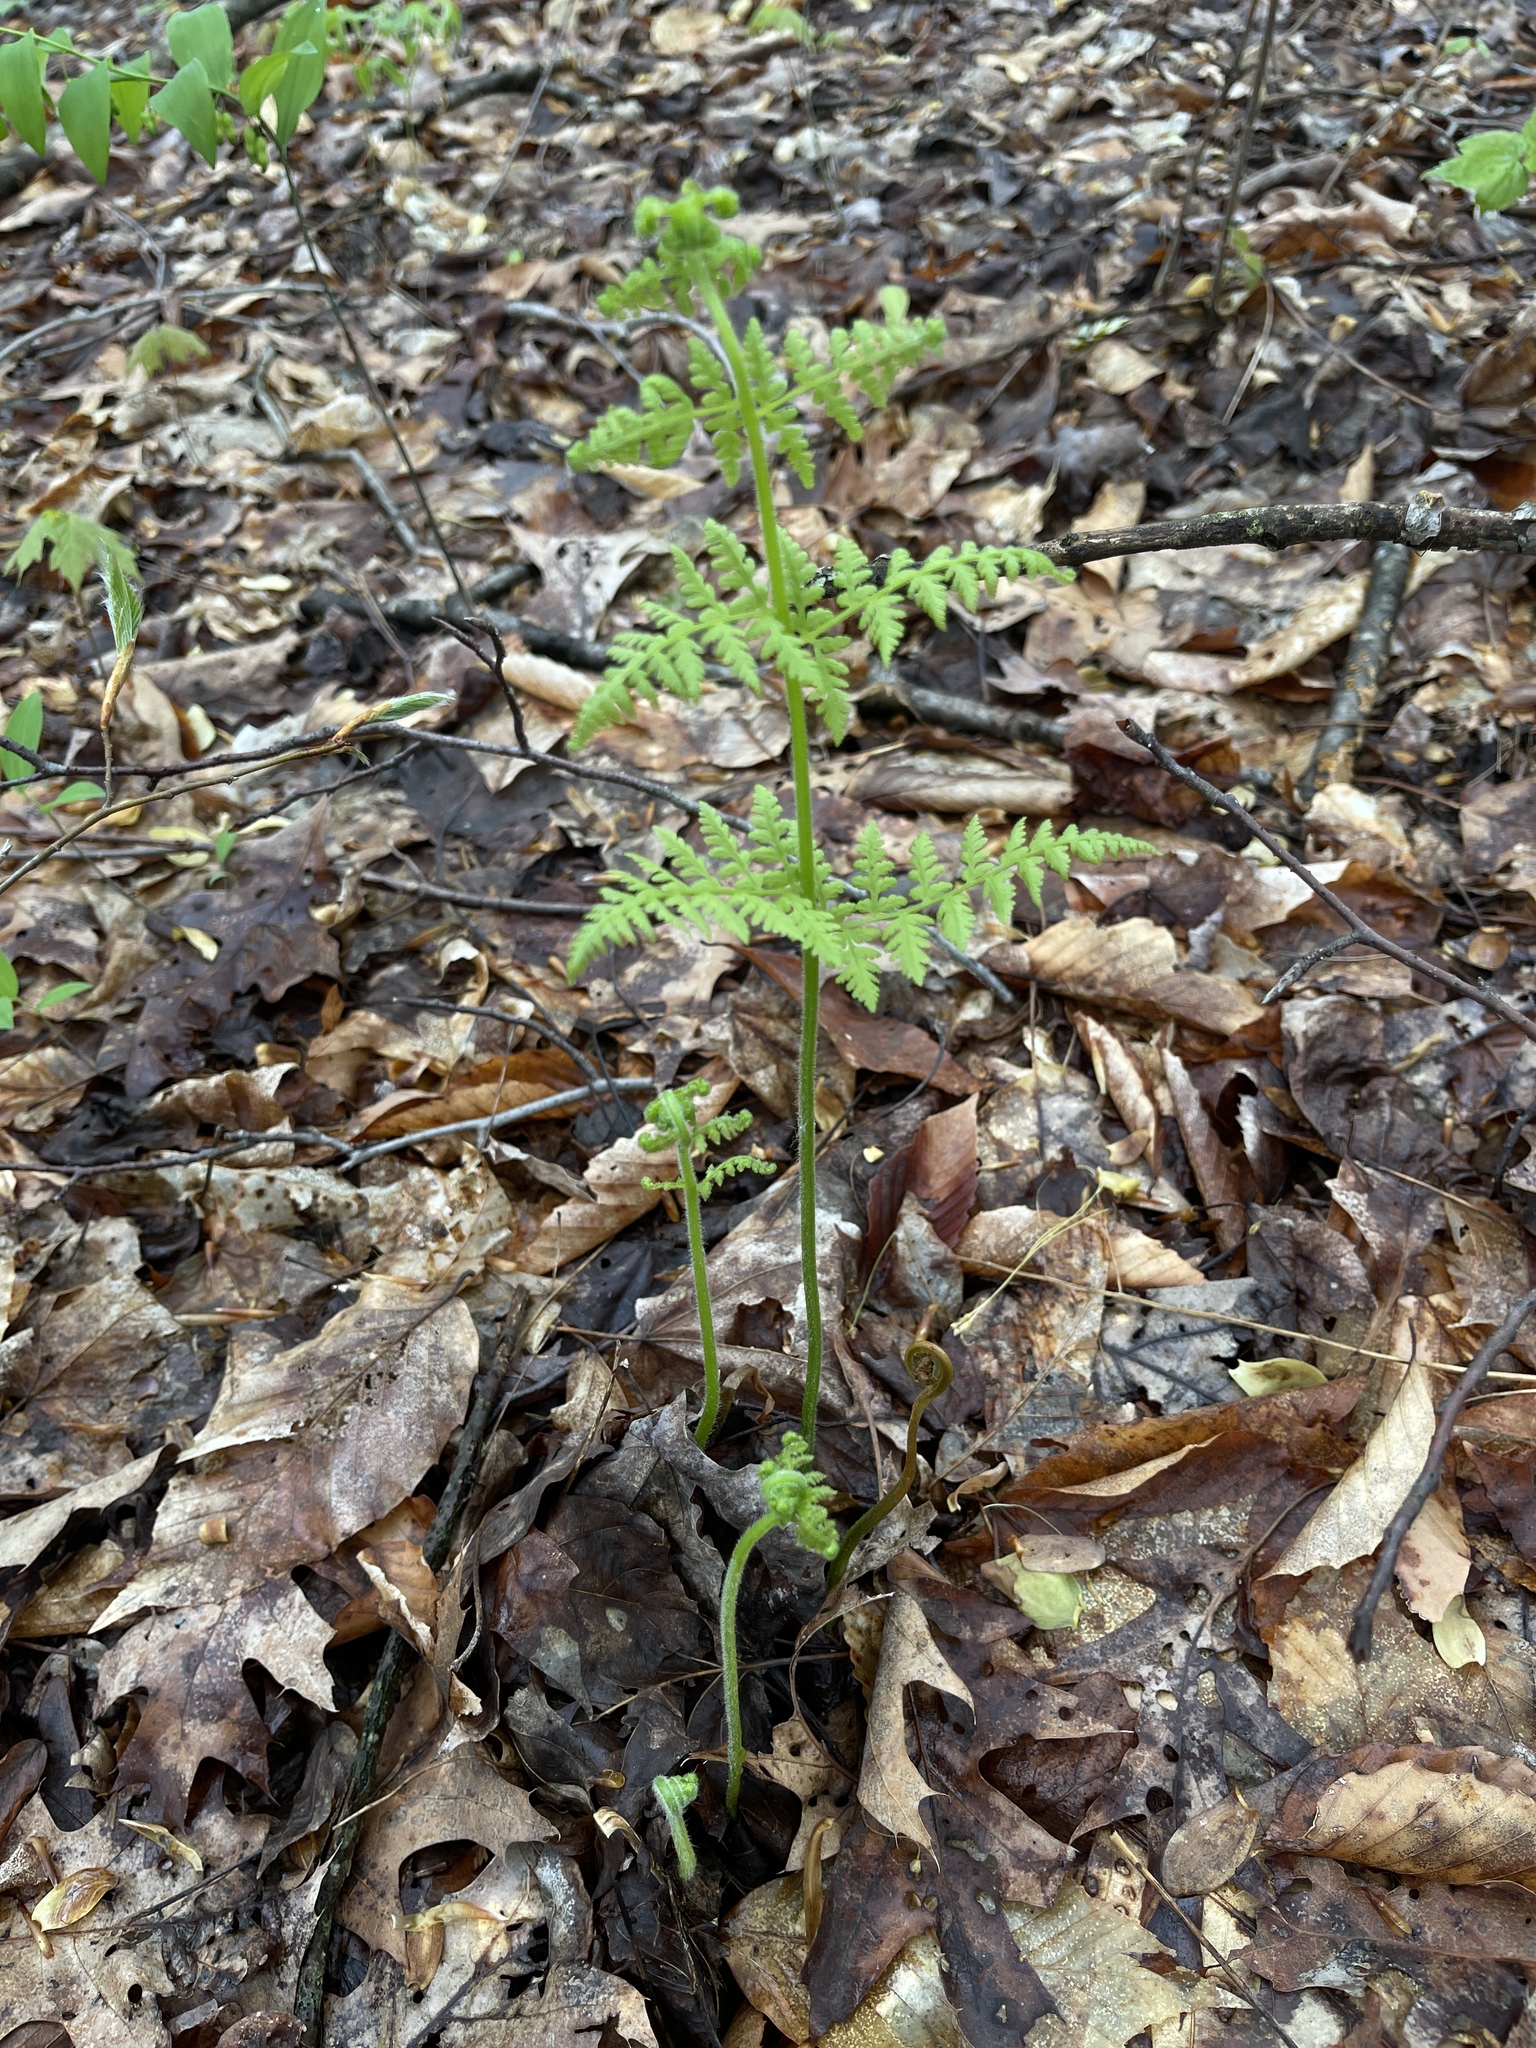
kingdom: Plantae
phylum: Tracheophyta
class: Polypodiopsida
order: Polypodiales
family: Dennstaedtiaceae
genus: Sitobolium
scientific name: Sitobolium punctilobum
